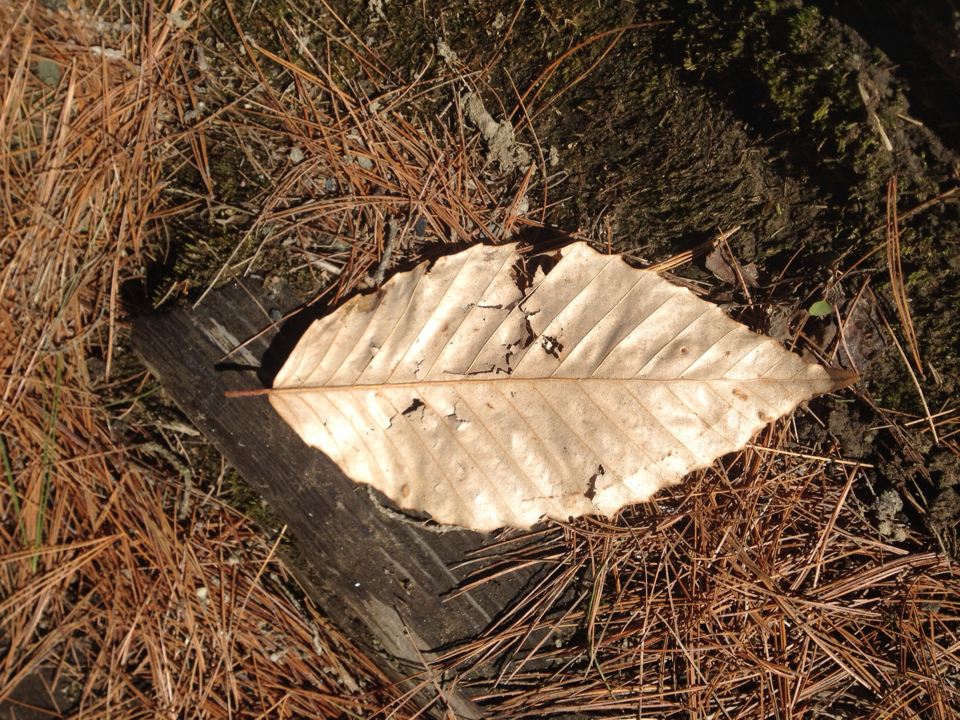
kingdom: Plantae
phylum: Tracheophyta
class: Magnoliopsida
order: Fagales
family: Fagaceae
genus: Fagus
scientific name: Fagus grandifolia
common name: American beech
